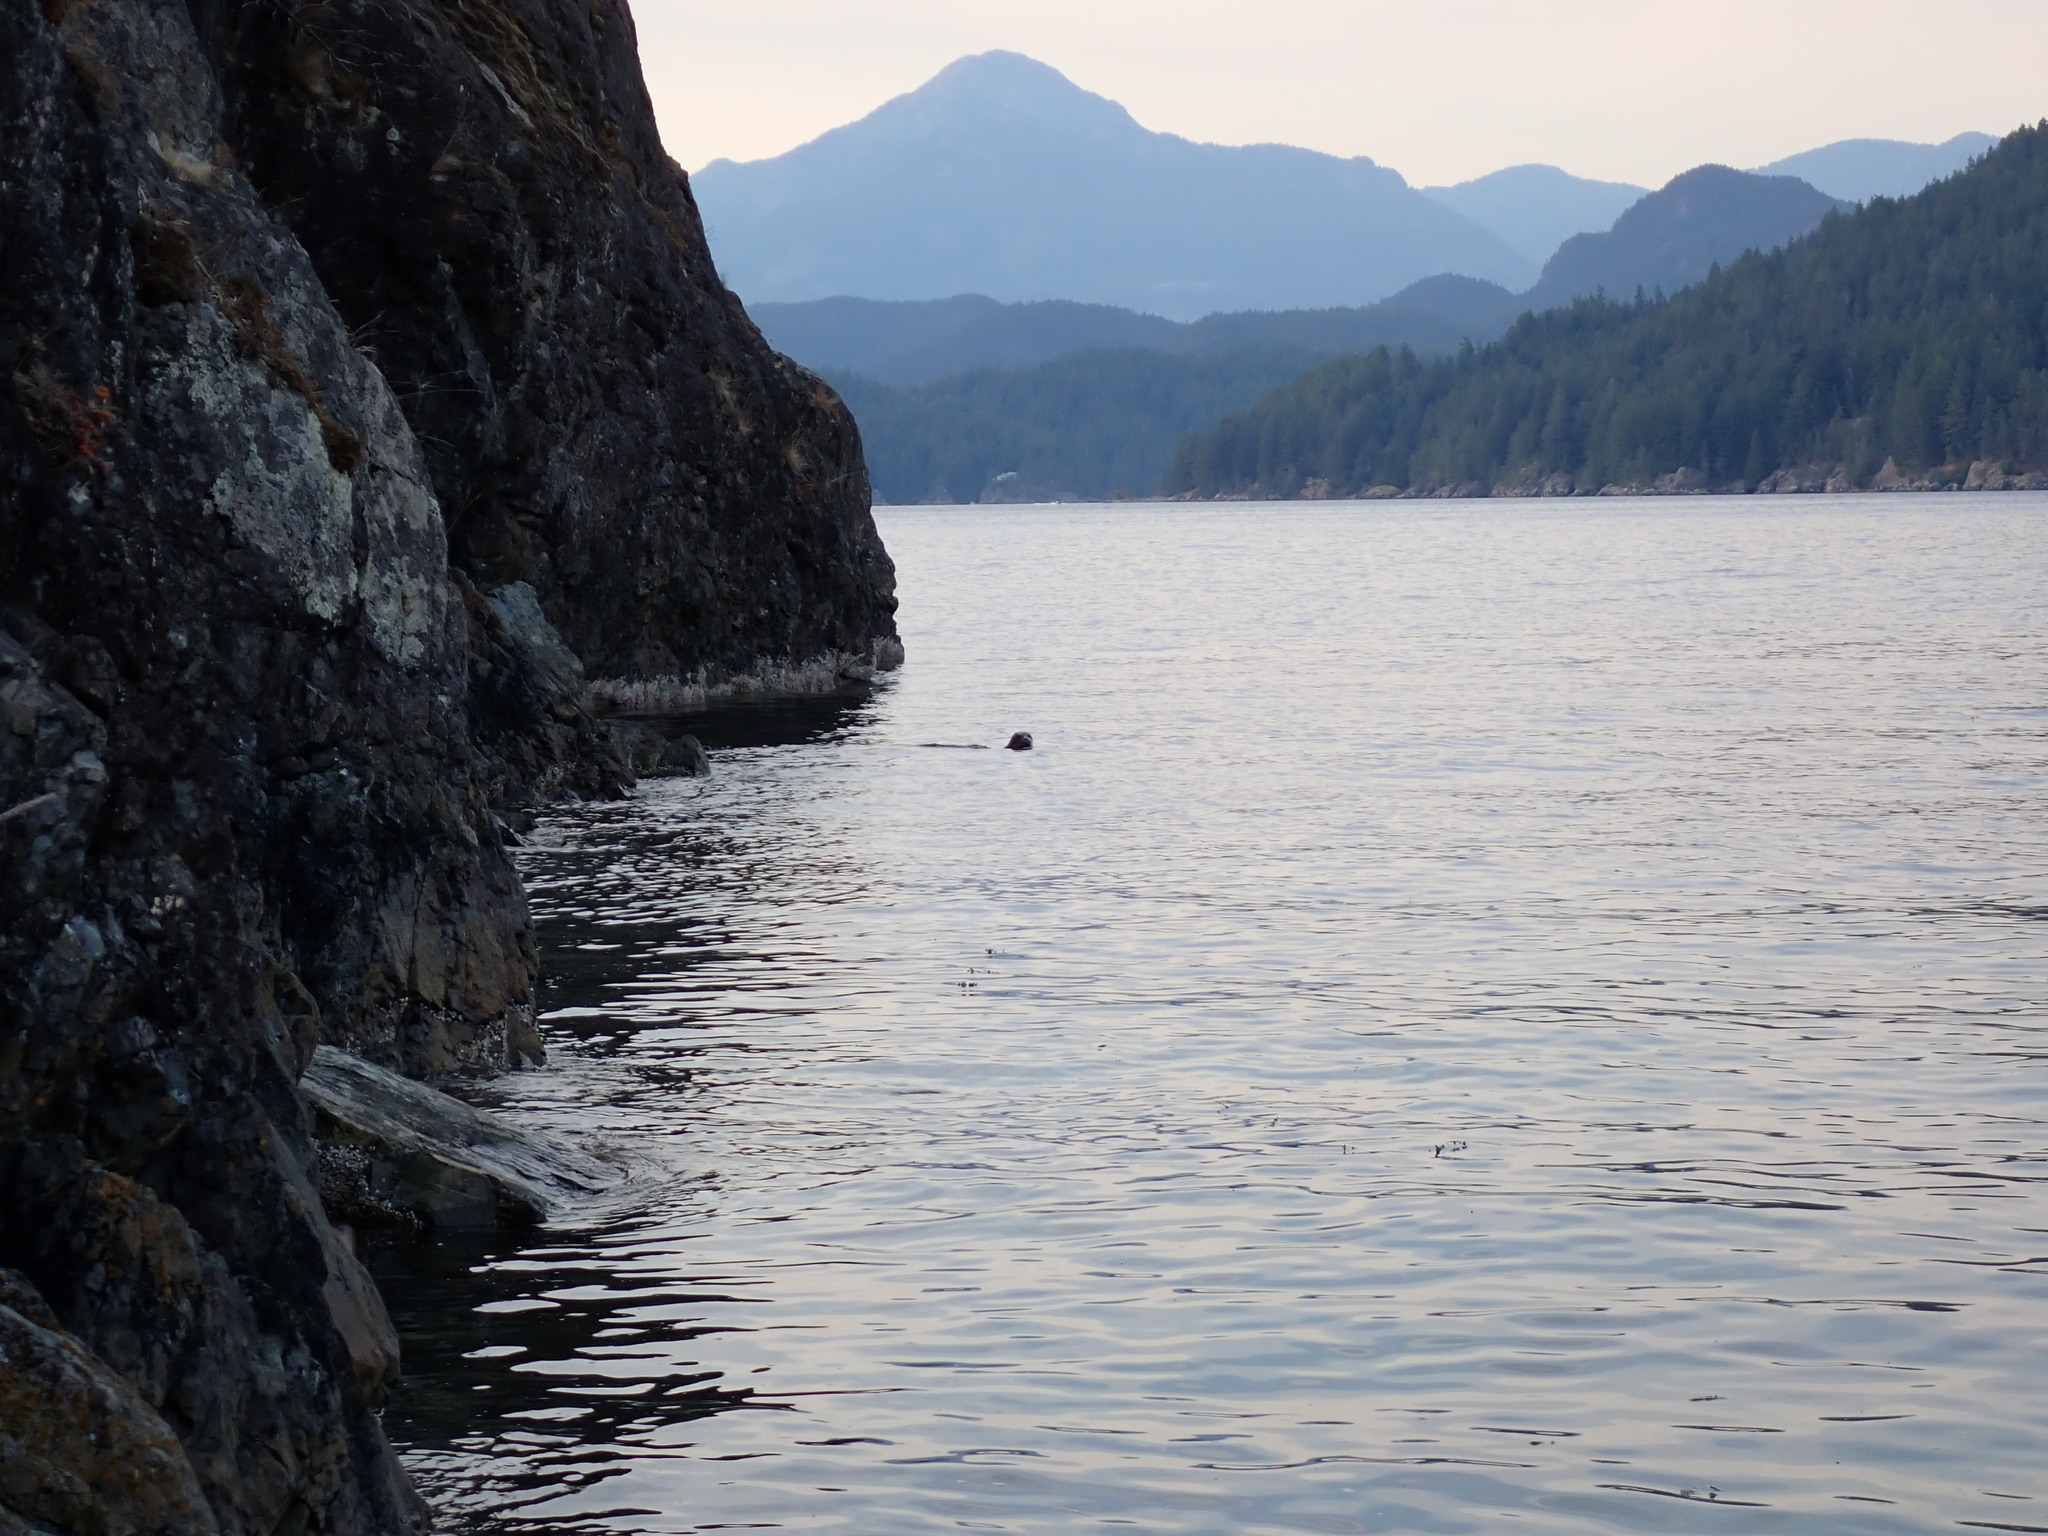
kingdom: Animalia
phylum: Chordata
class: Mammalia
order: Carnivora
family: Phocidae
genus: Phoca
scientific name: Phoca vitulina
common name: Harbor seal
